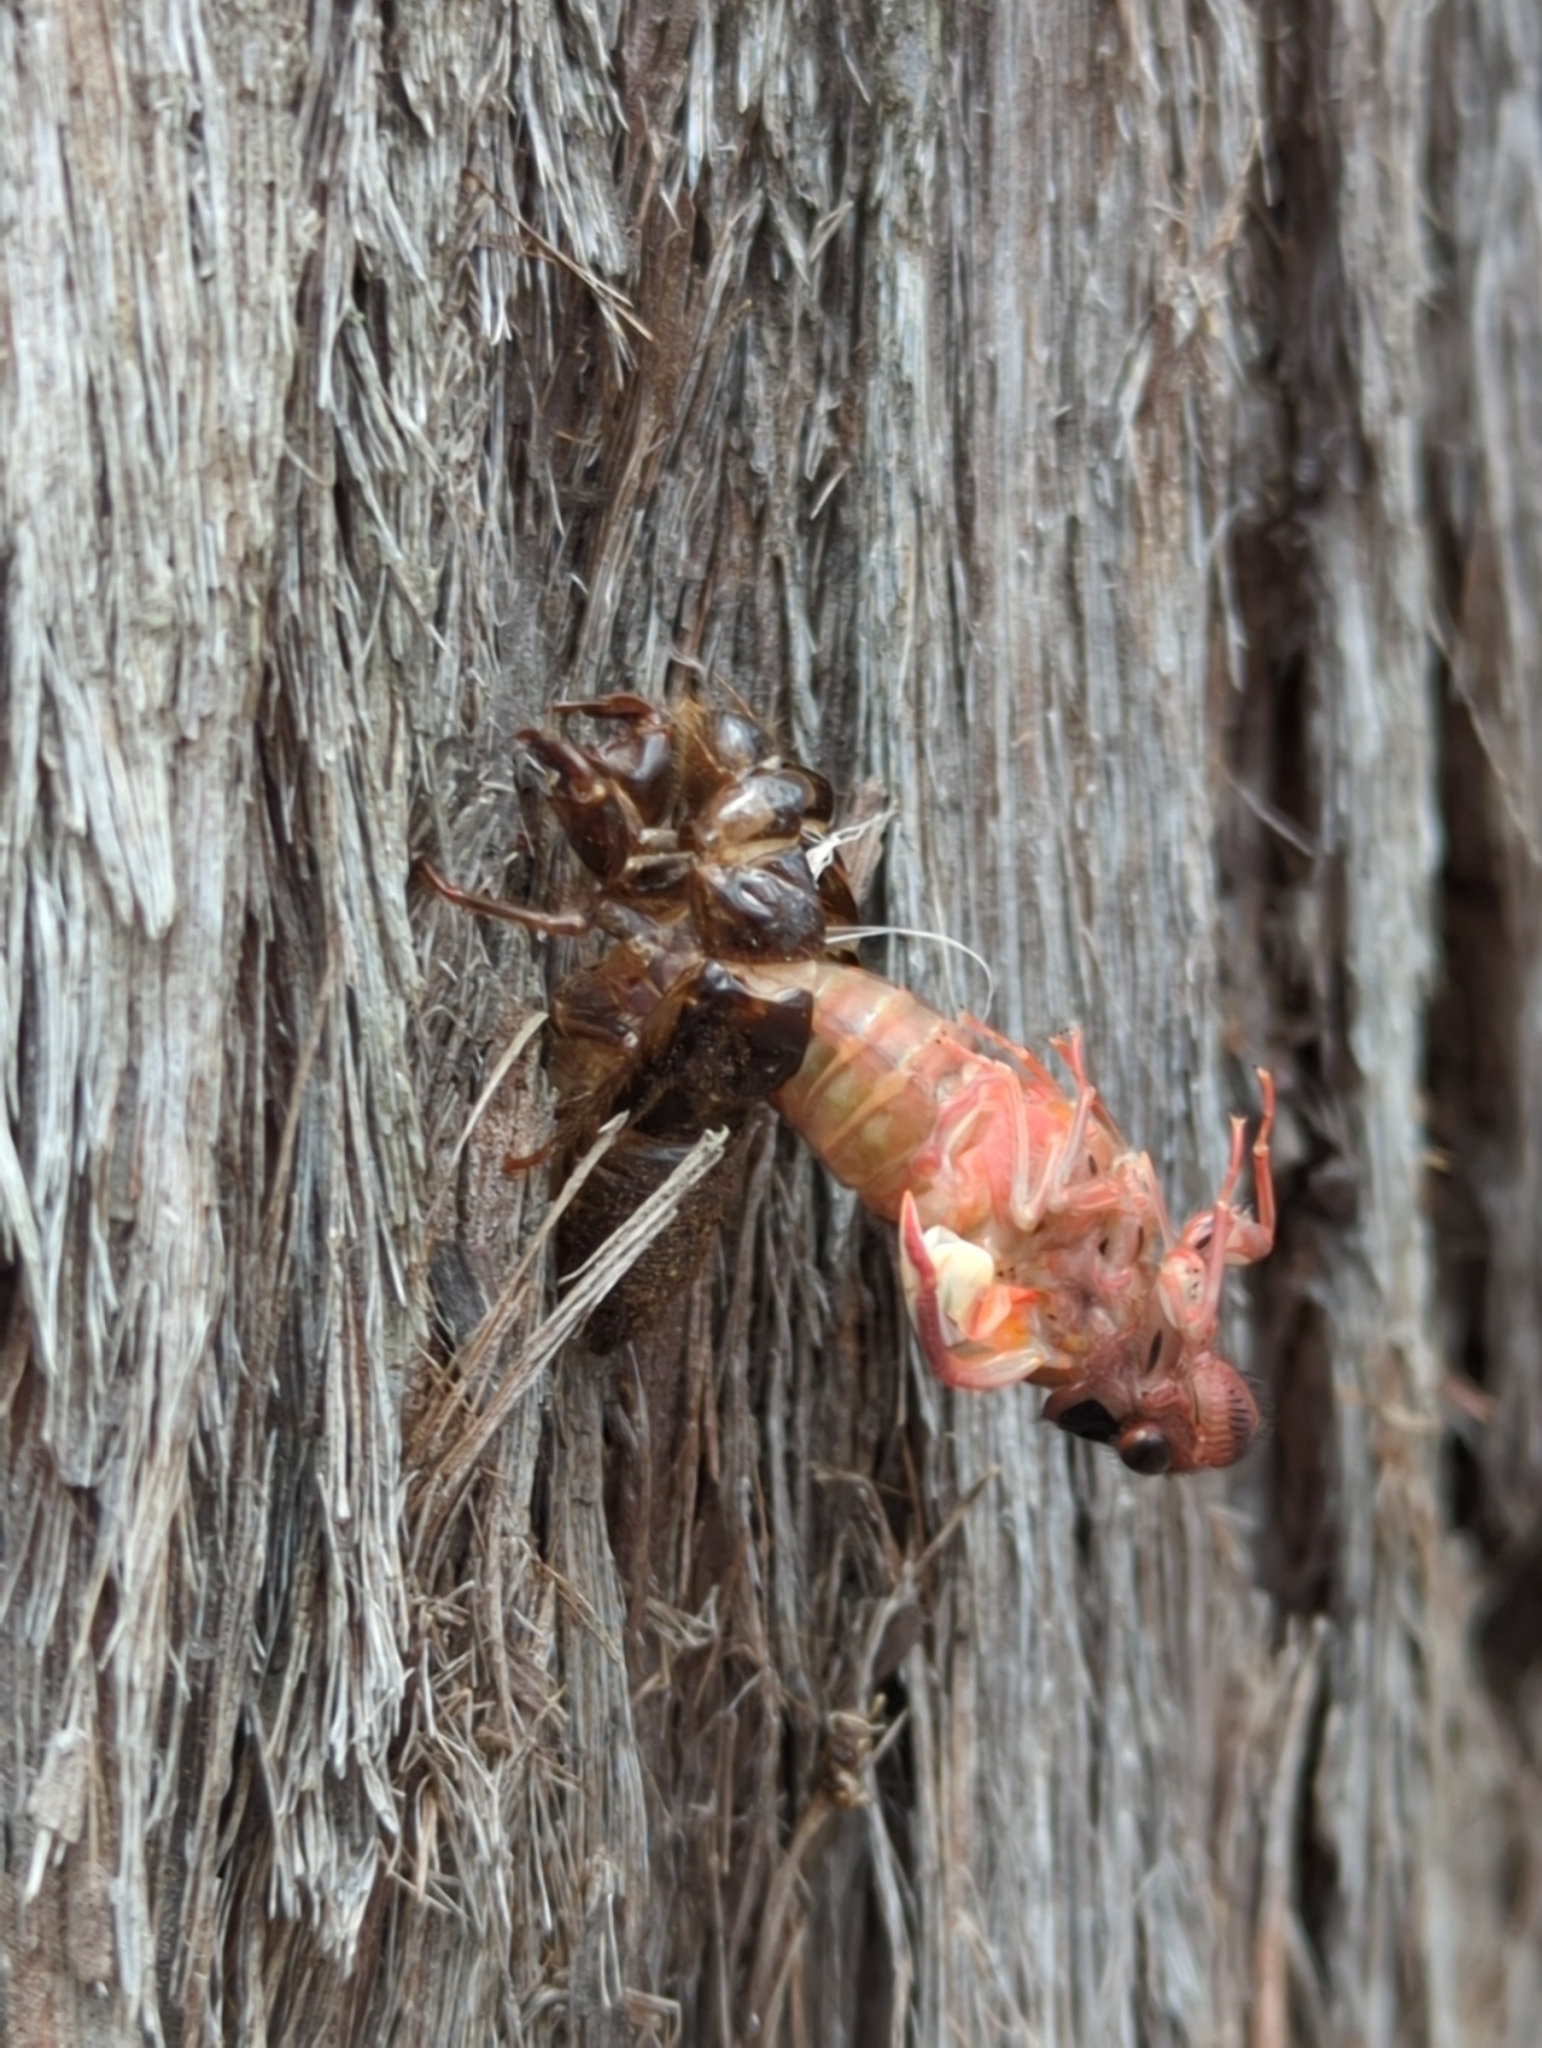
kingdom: Animalia
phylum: Arthropoda
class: Insecta
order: Hemiptera
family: Cicadidae
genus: Yoyetta
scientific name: Yoyetta
